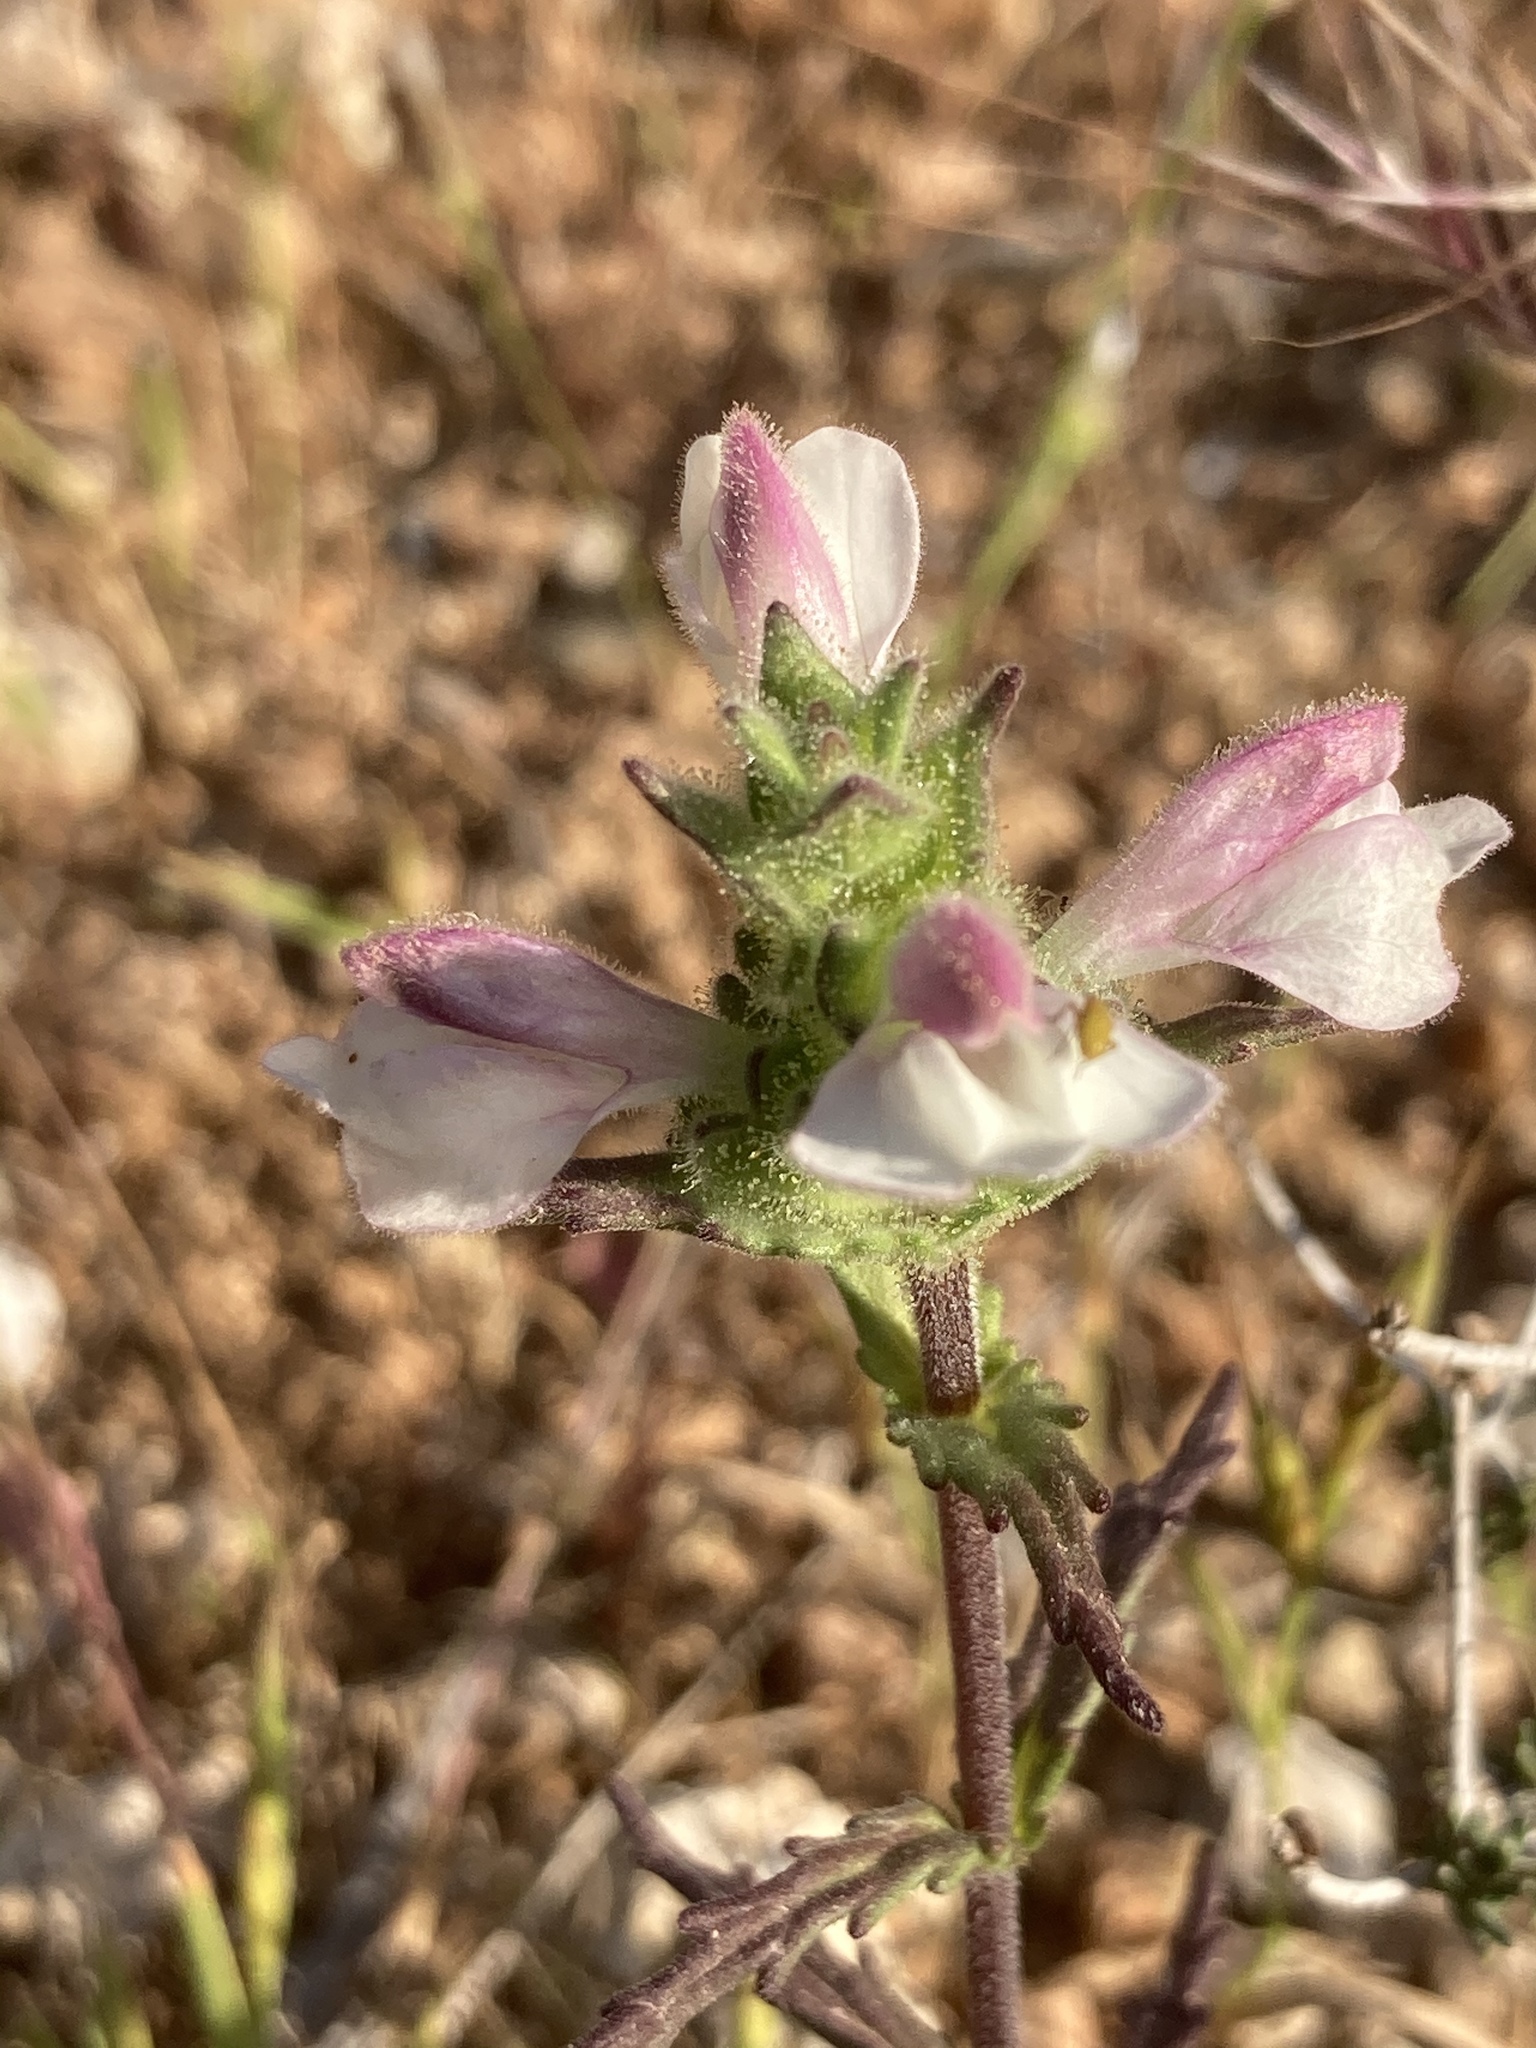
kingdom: Plantae
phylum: Tracheophyta
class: Magnoliopsida
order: Lamiales
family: Orobanchaceae
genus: Bellardia
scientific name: Bellardia trixago
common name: Mediterranean lineseed
